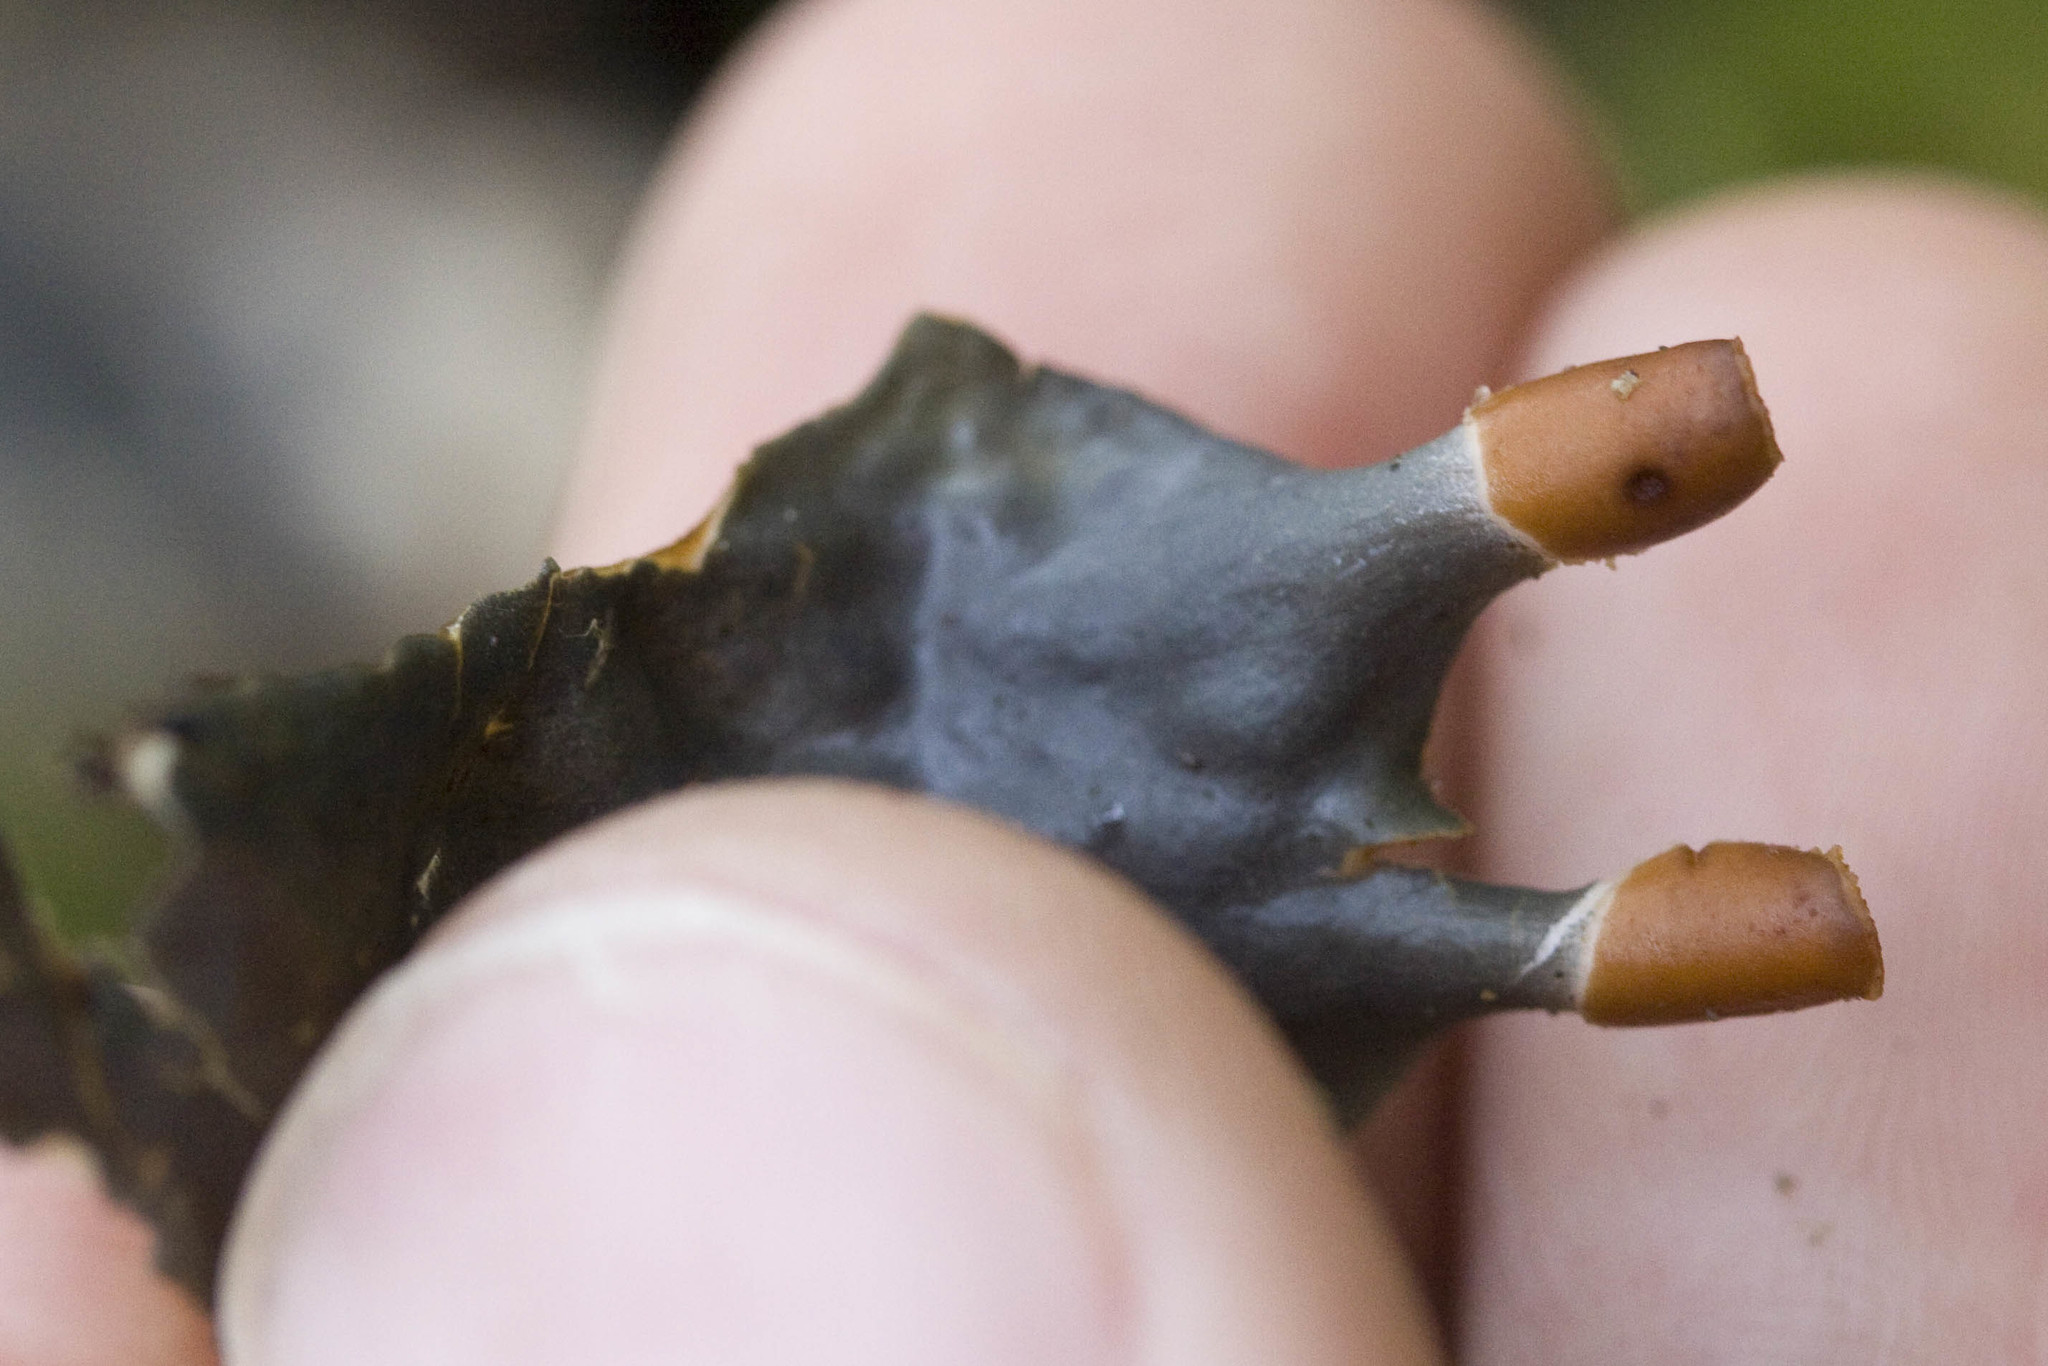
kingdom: Fungi
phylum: Ascomycota
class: Lecanoromycetes
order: Peltigerales
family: Peltigeraceae
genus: Peltigera
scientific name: Peltigera membranacea
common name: Membranous pelt lichen
